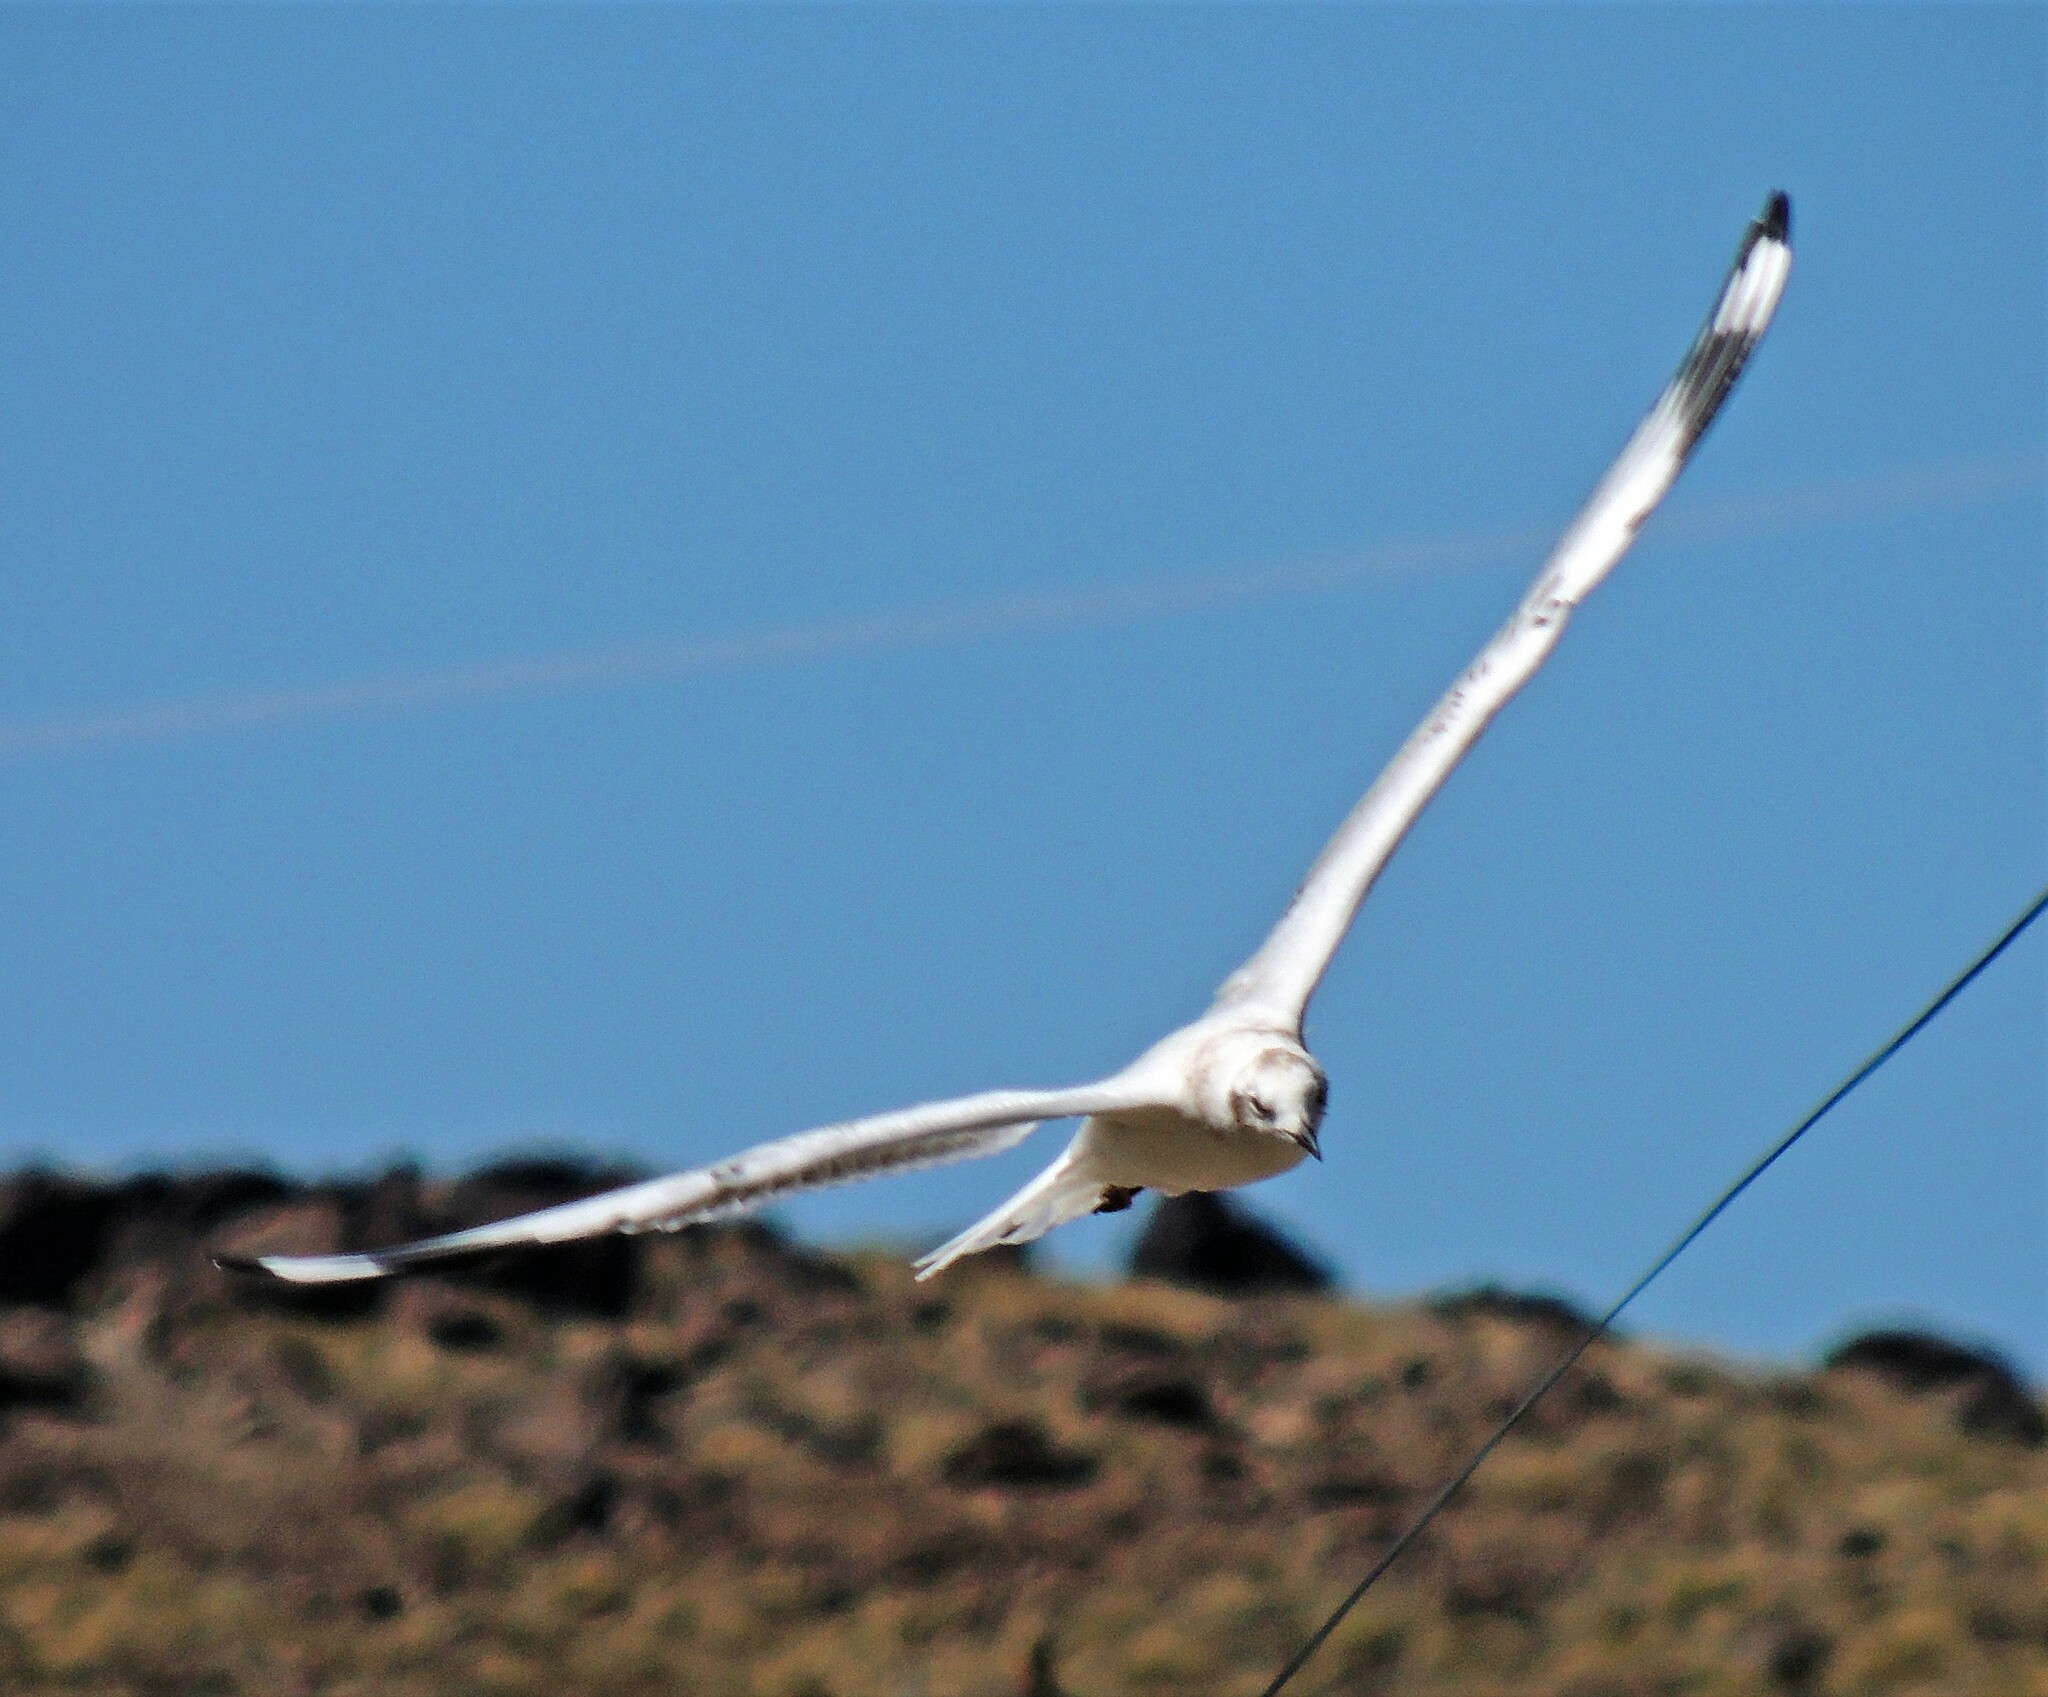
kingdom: Animalia
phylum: Chordata
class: Aves
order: Charadriiformes
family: Laridae
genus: Chroicocephalus
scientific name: Chroicocephalus serranus
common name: Andean gull
